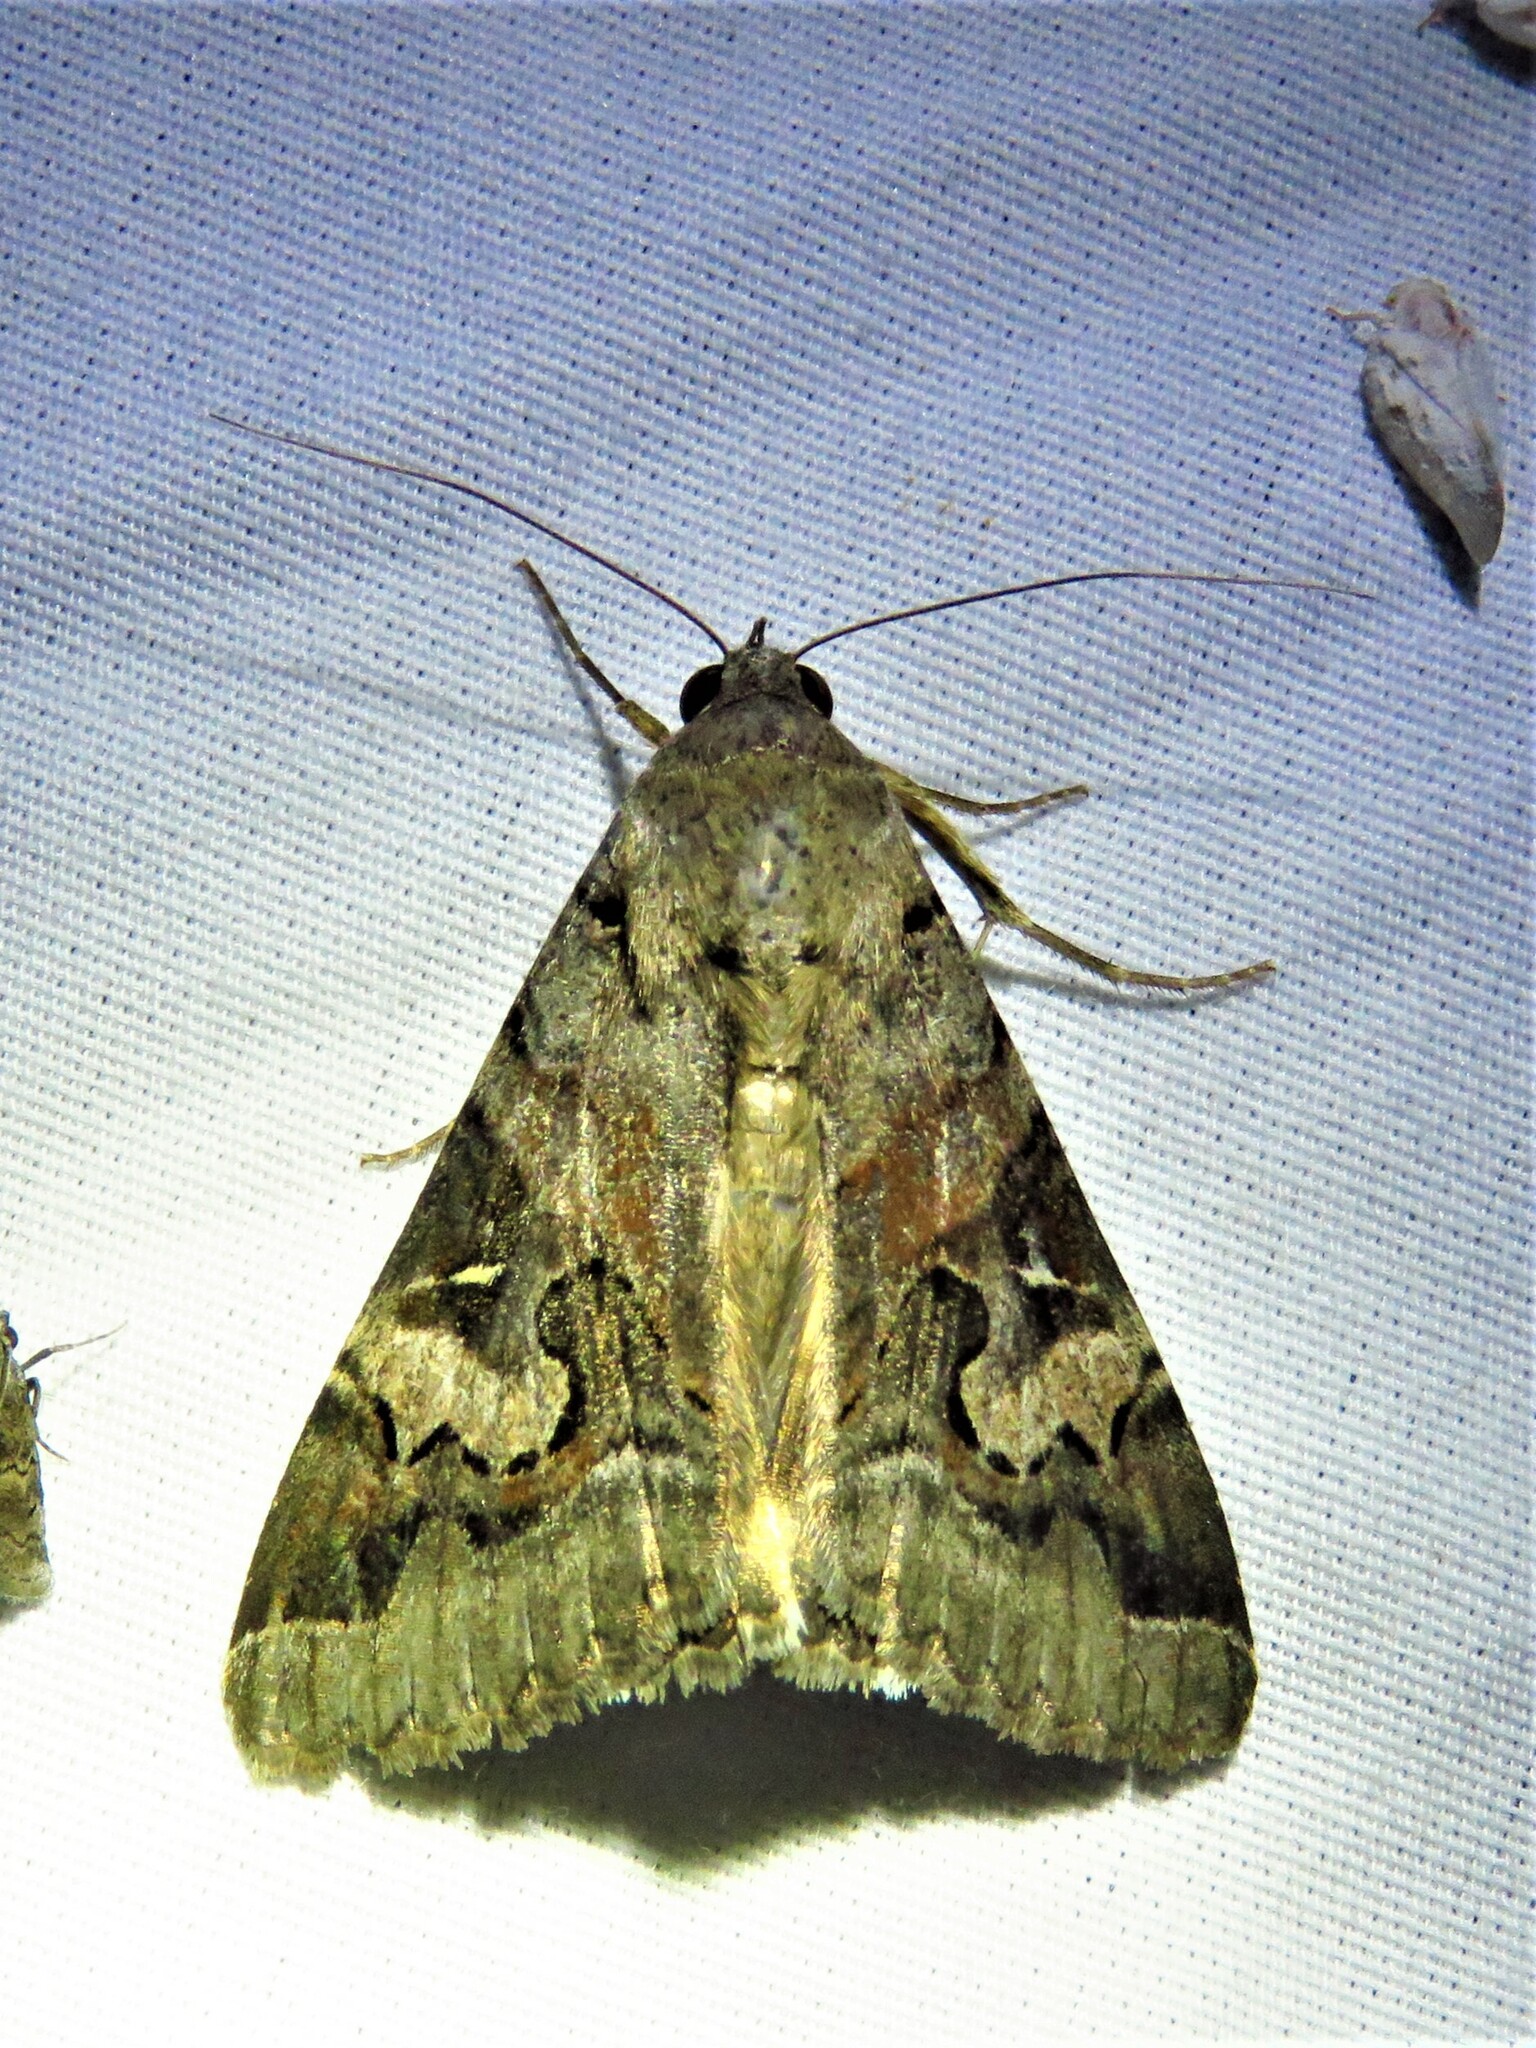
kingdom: Animalia
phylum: Arthropoda
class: Insecta
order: Lepidoptera
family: Erebidae
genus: Melipotis
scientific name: Melipotis indomita
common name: Moth
